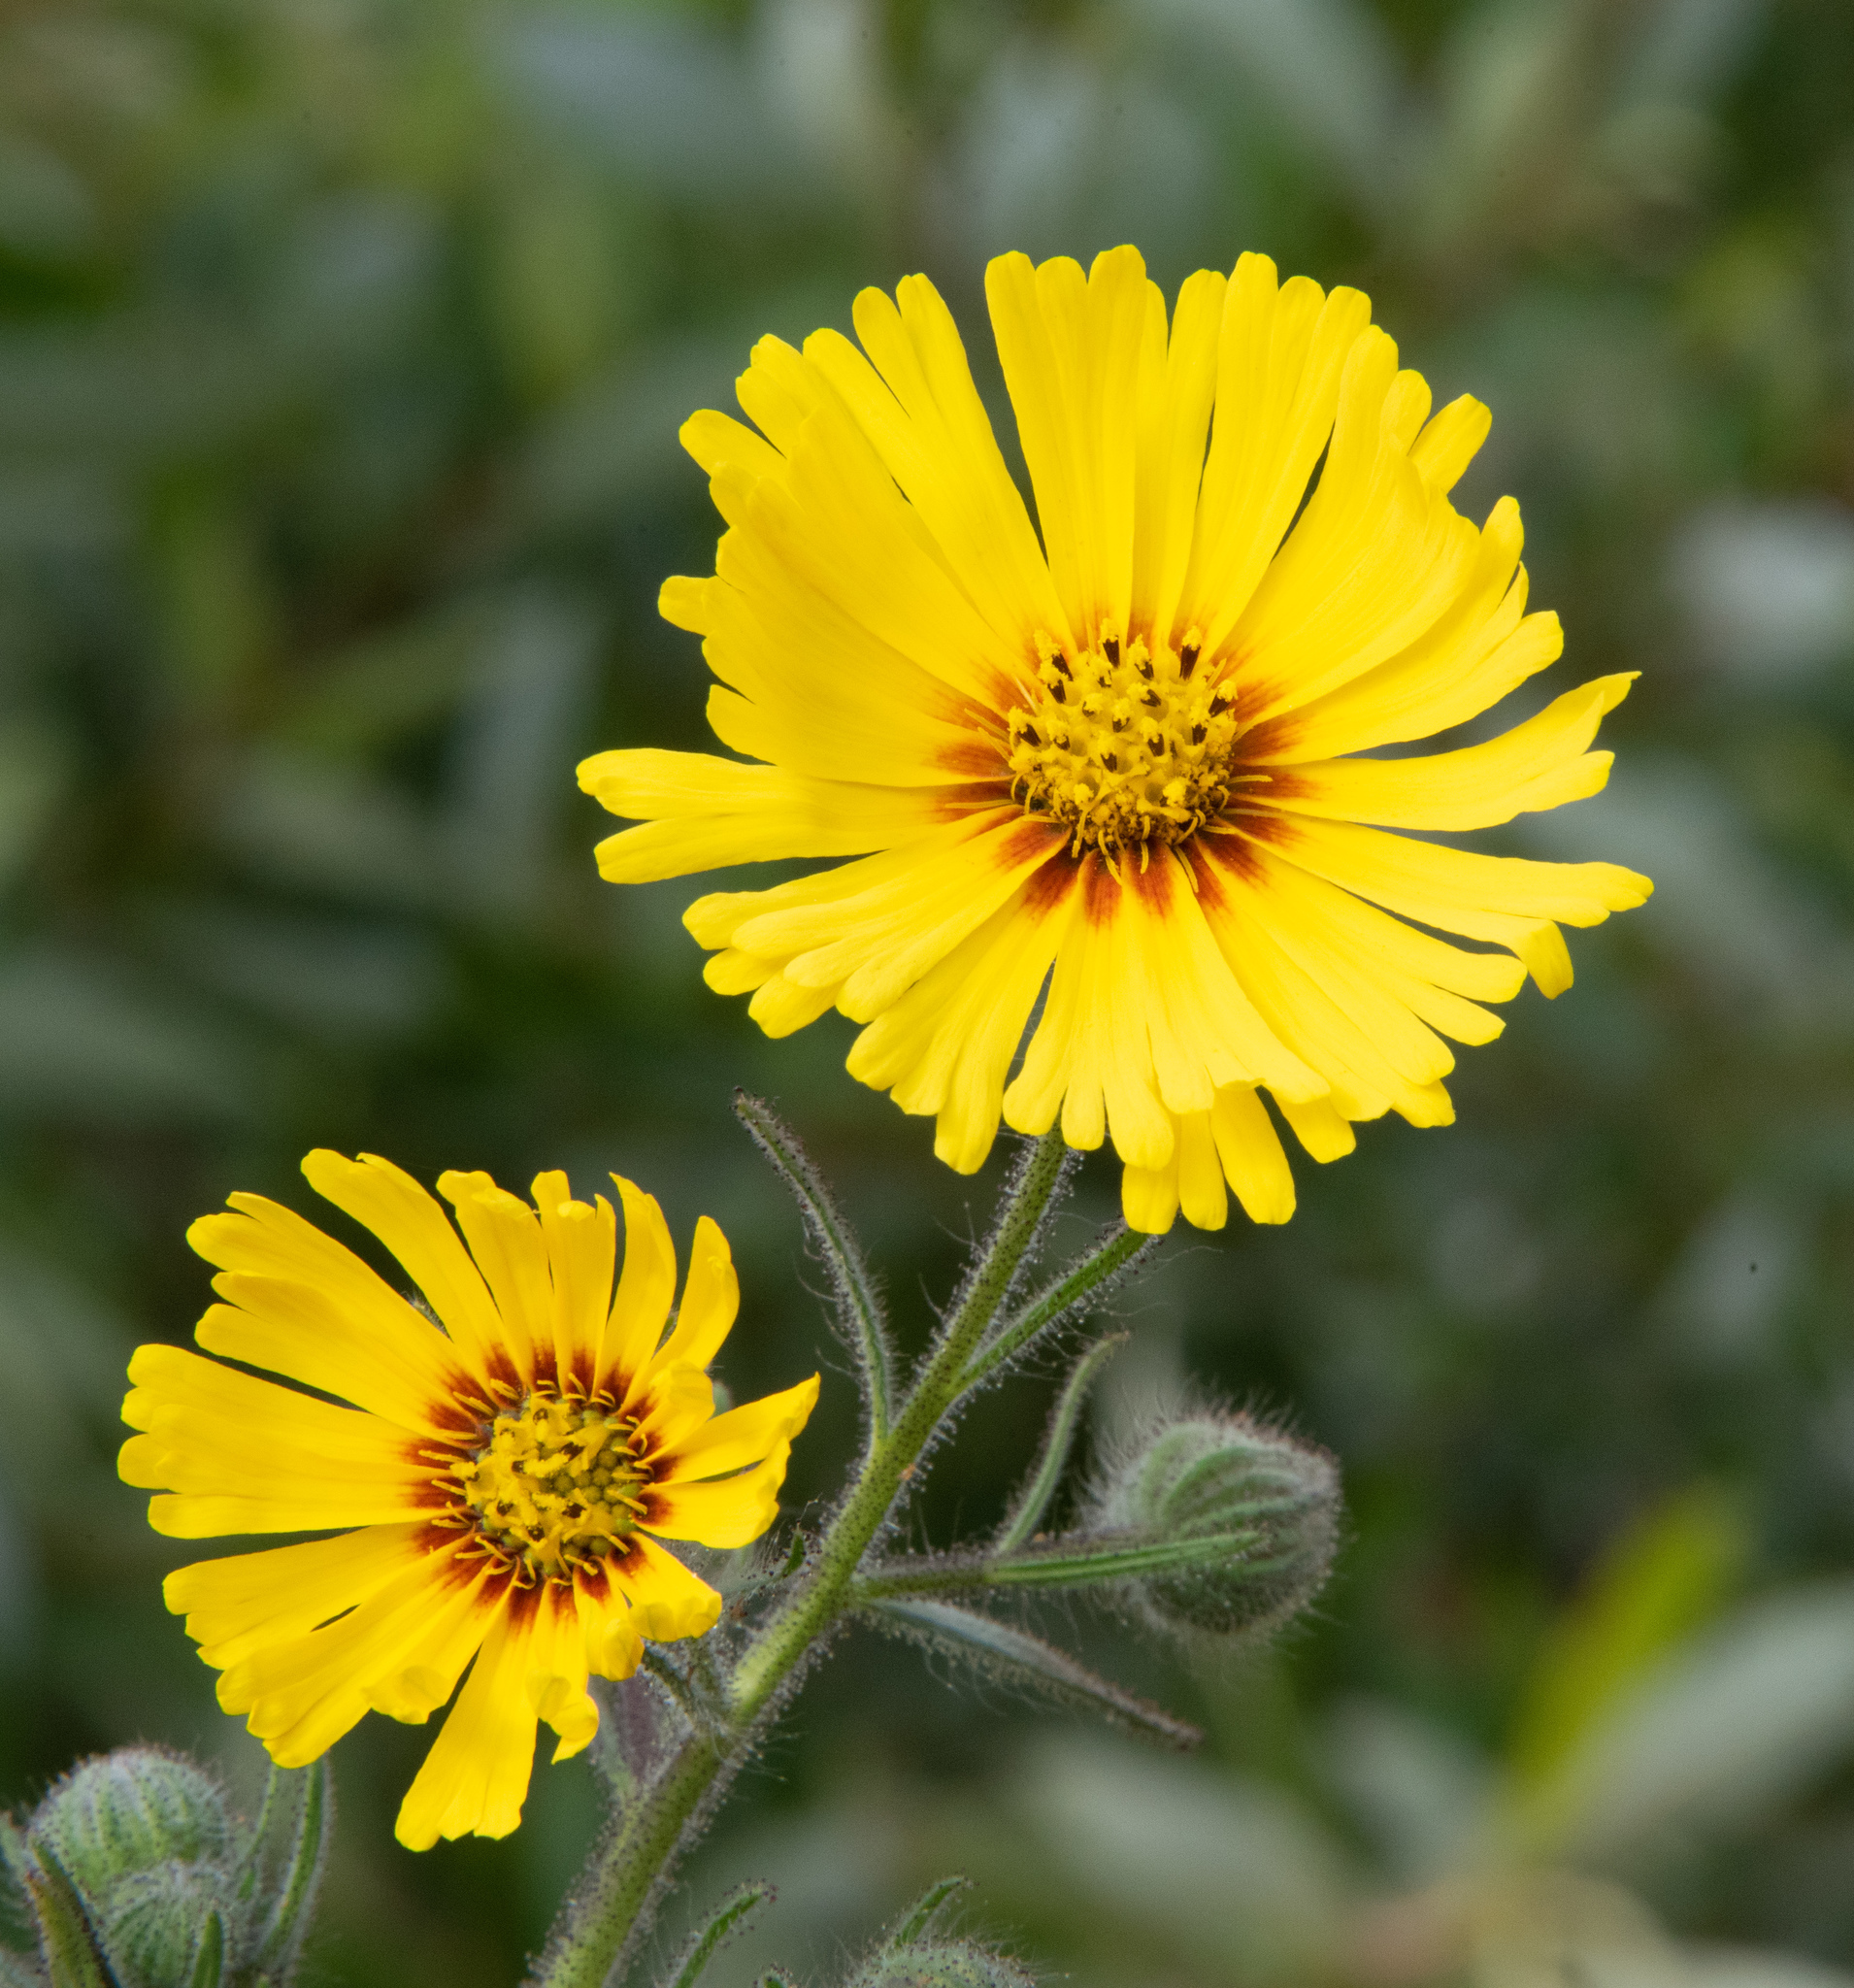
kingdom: Plantae
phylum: Tracheophyta
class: Magnoliopsida
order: Asterales
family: Asteraceae
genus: Madia
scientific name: Madia elegans
